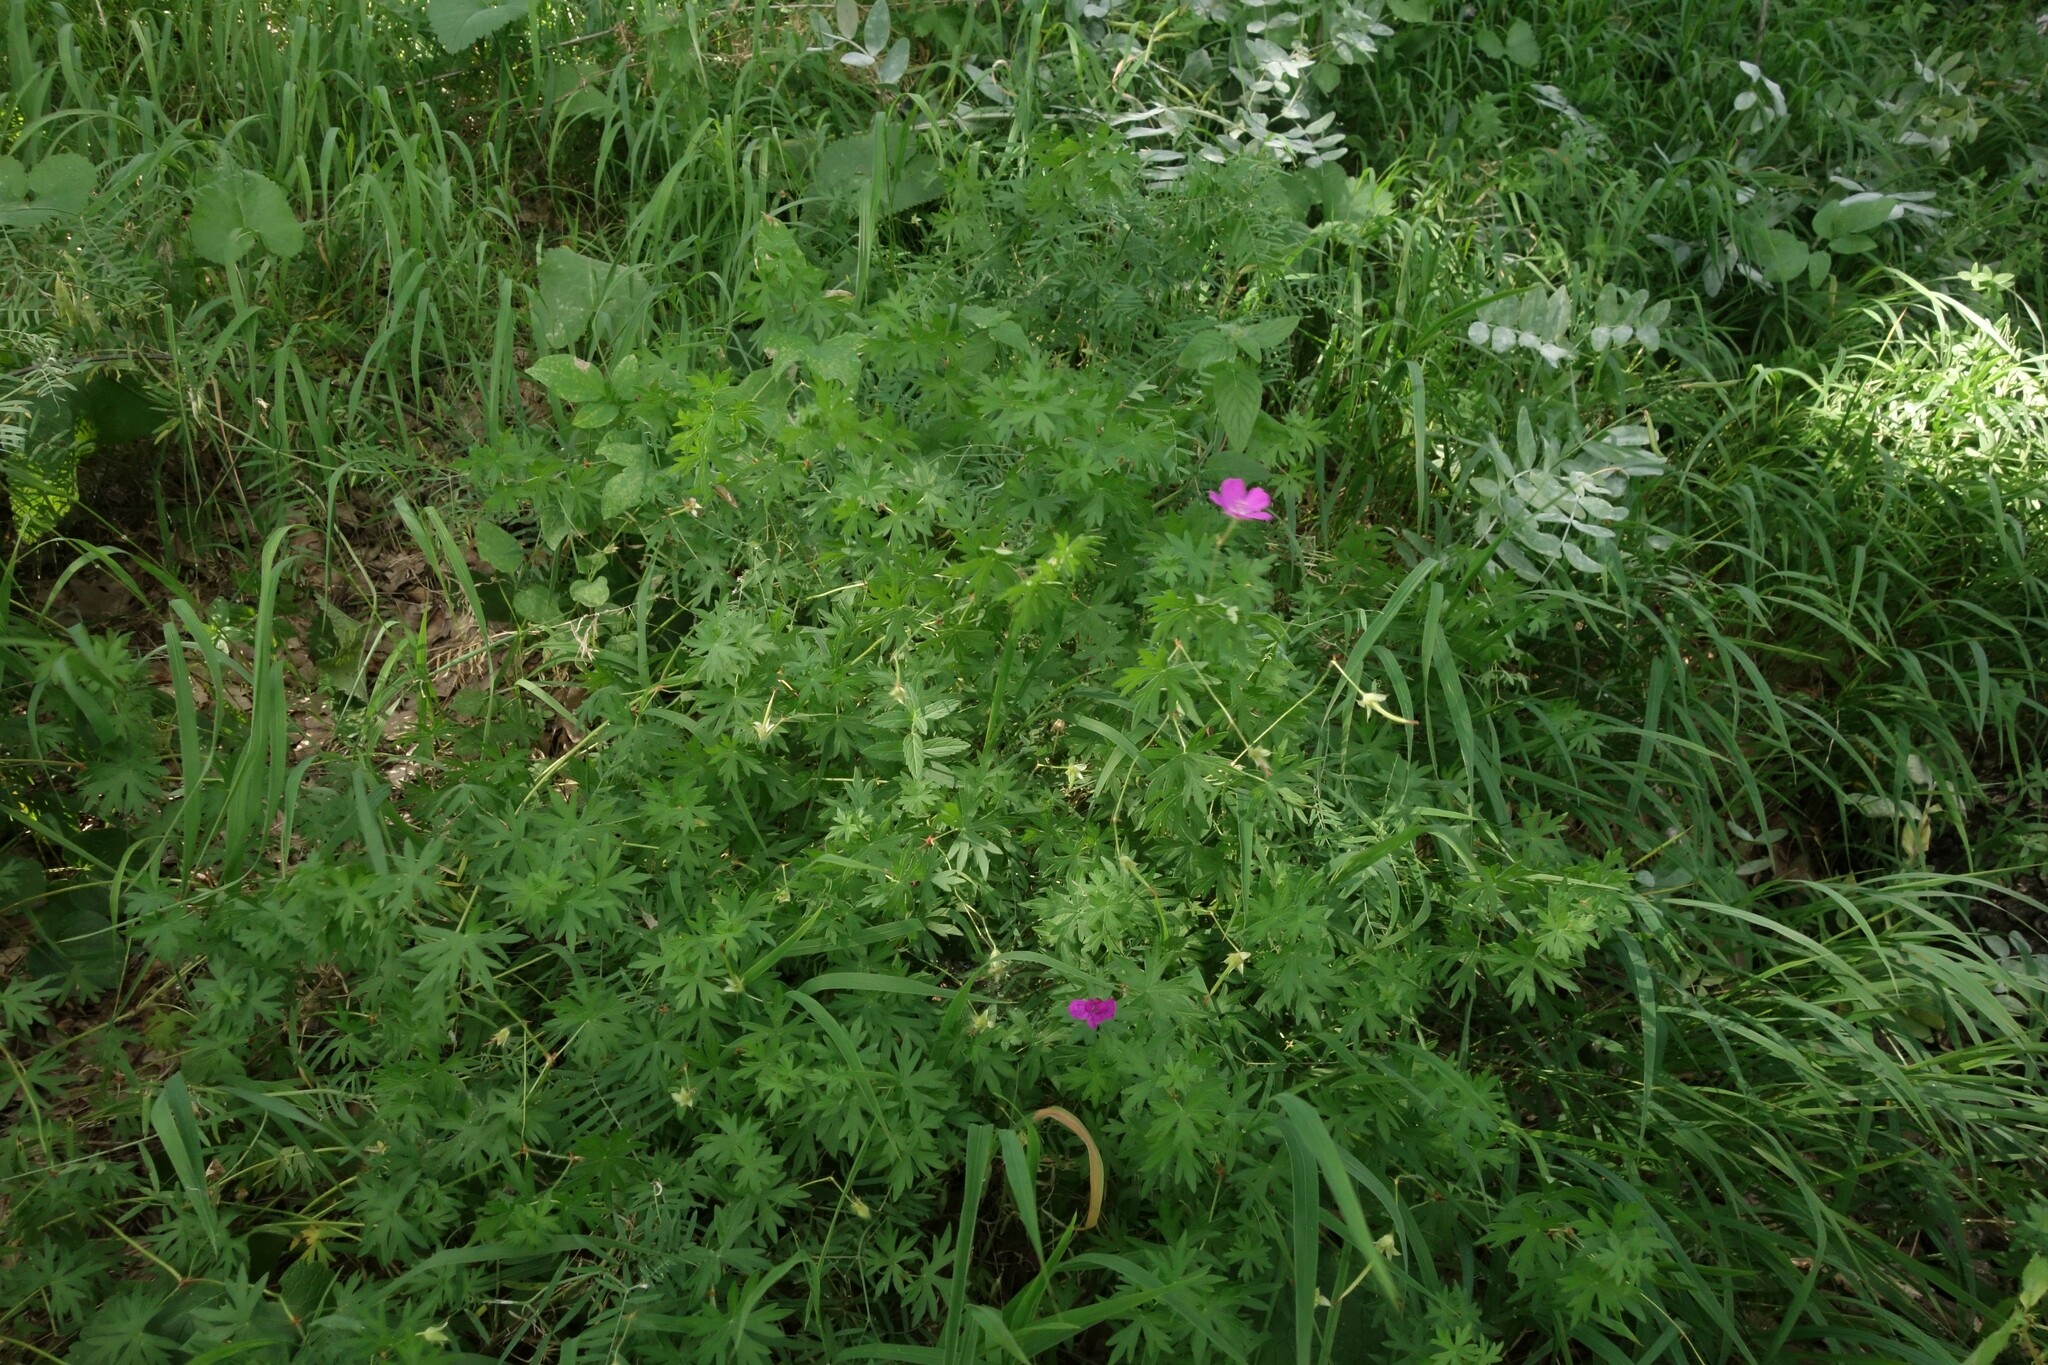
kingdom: Plantae
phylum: Tracheophyta
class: Magnoliopsida
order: Geraniales
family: Geraniaceae
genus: Geranium
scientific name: Geranium sanguineum
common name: Bloody crane's-bill
